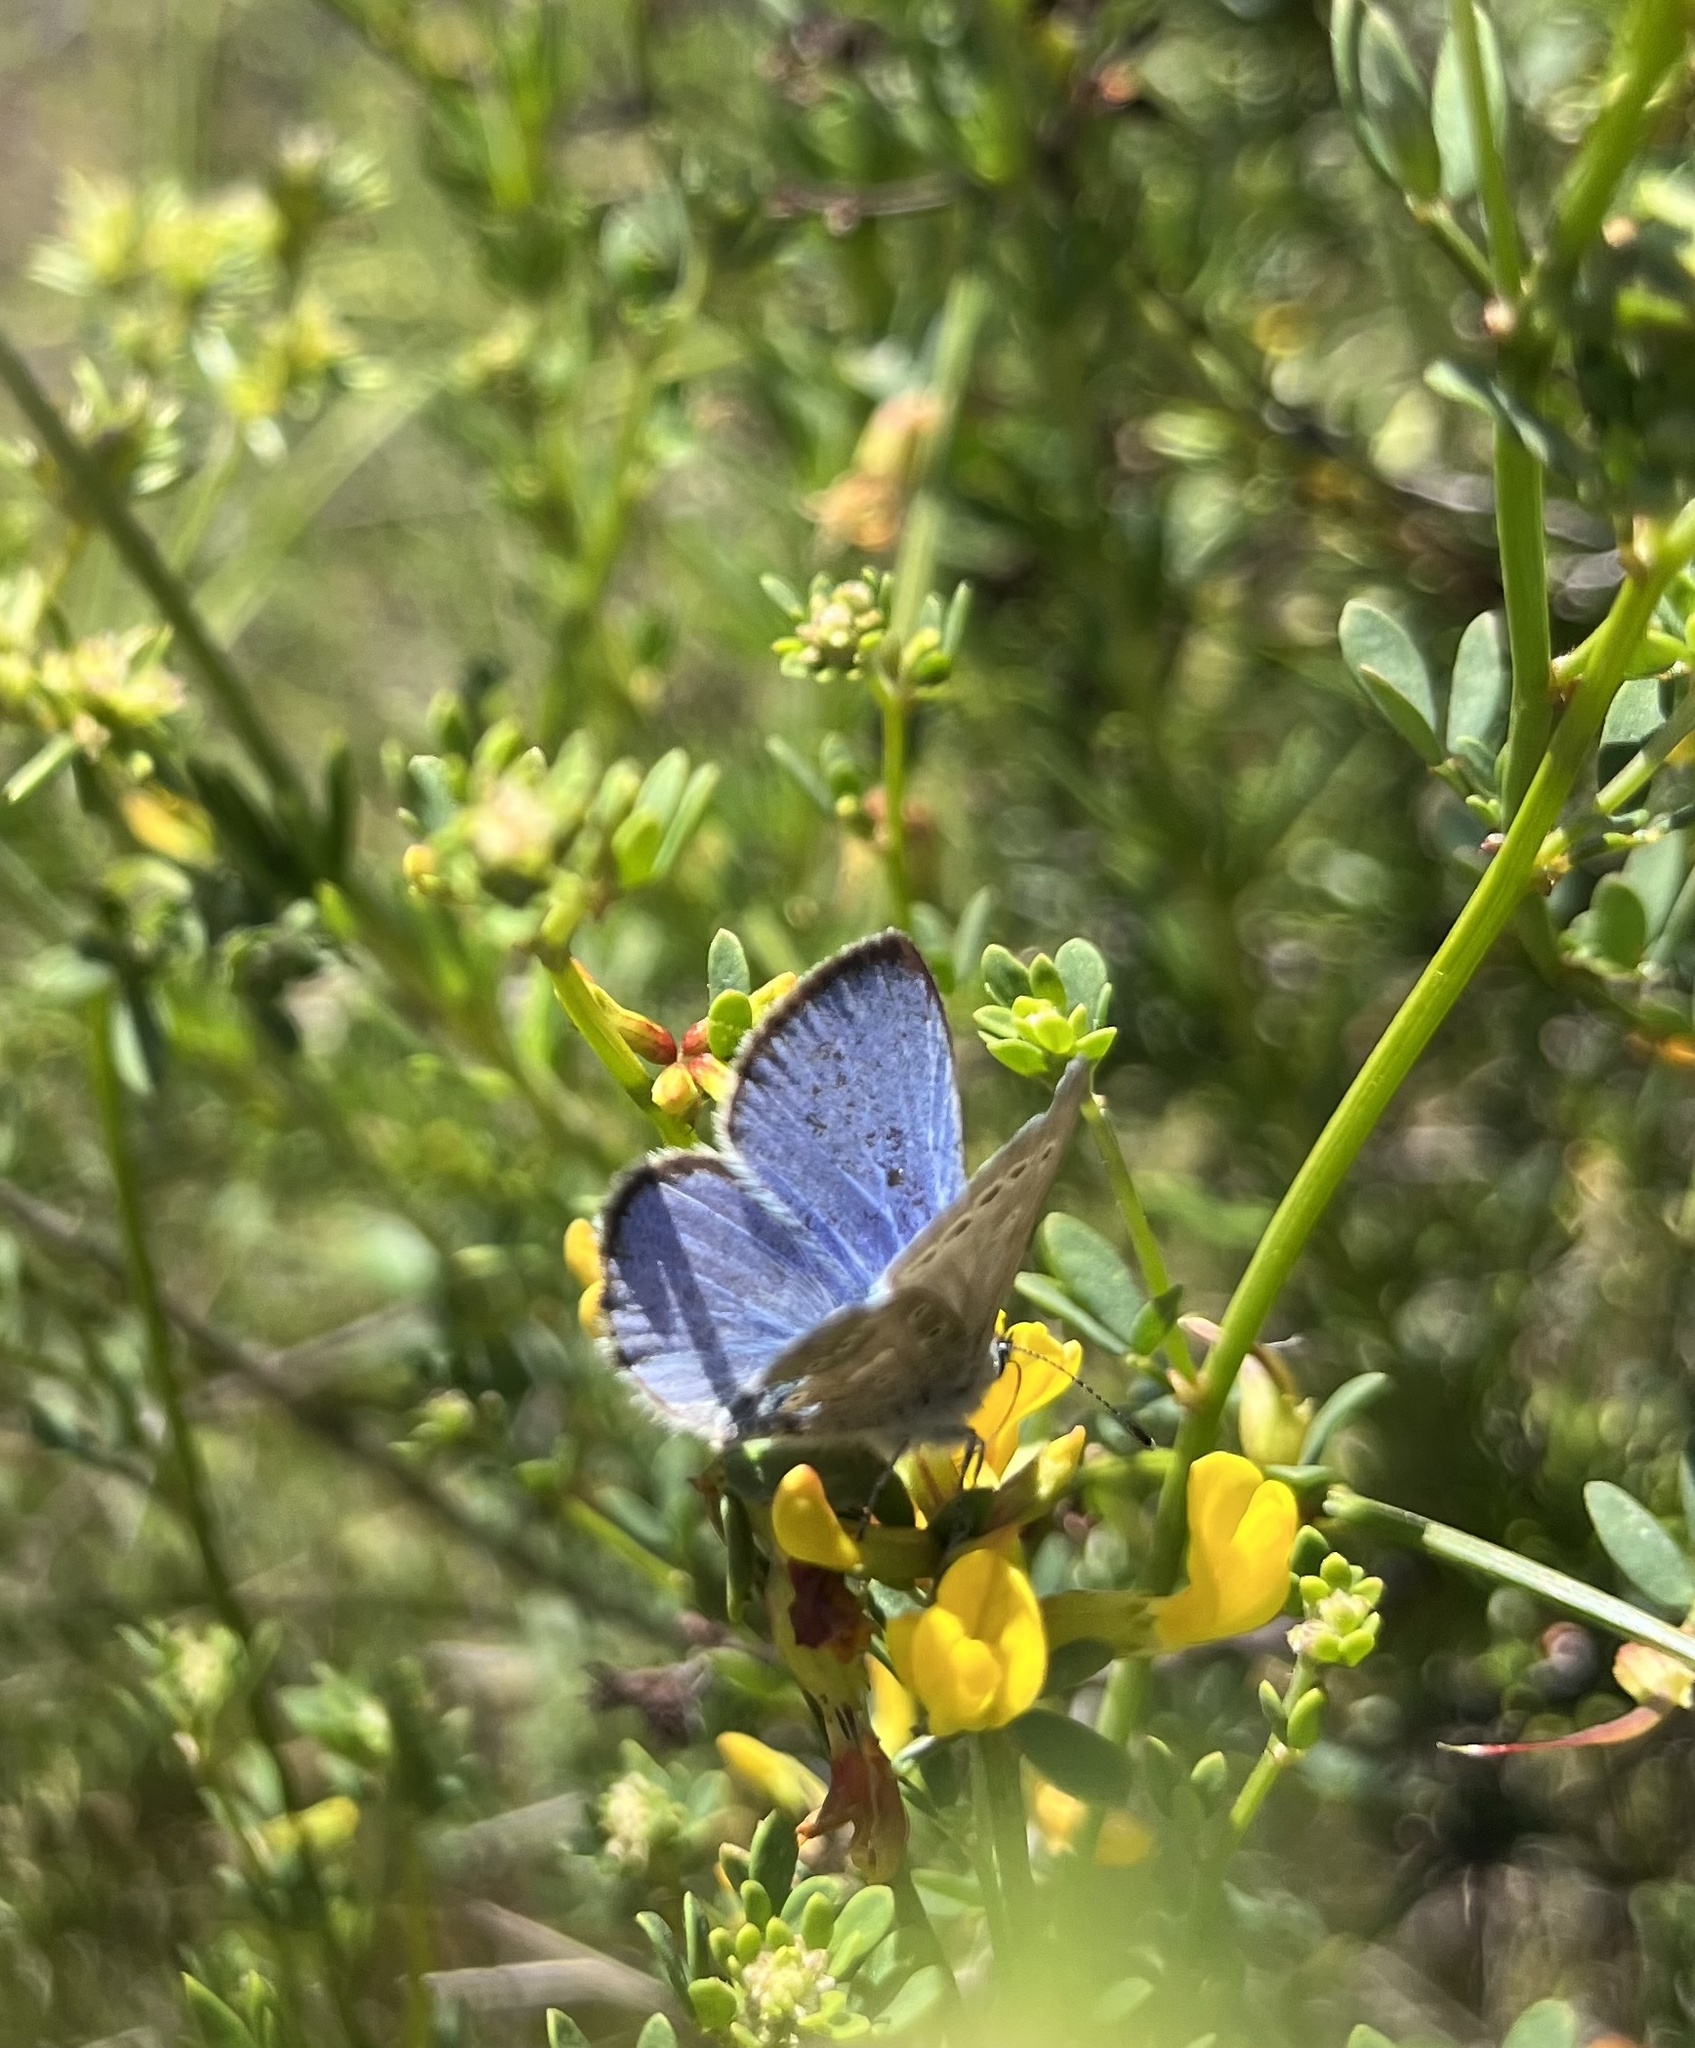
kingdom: Animalia
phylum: Arthropoda
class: Insecta
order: Lepidoptera
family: Lycaenidae
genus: Glaucopsyche
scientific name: Glaucopsyche lygdamus
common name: Silvery blue
